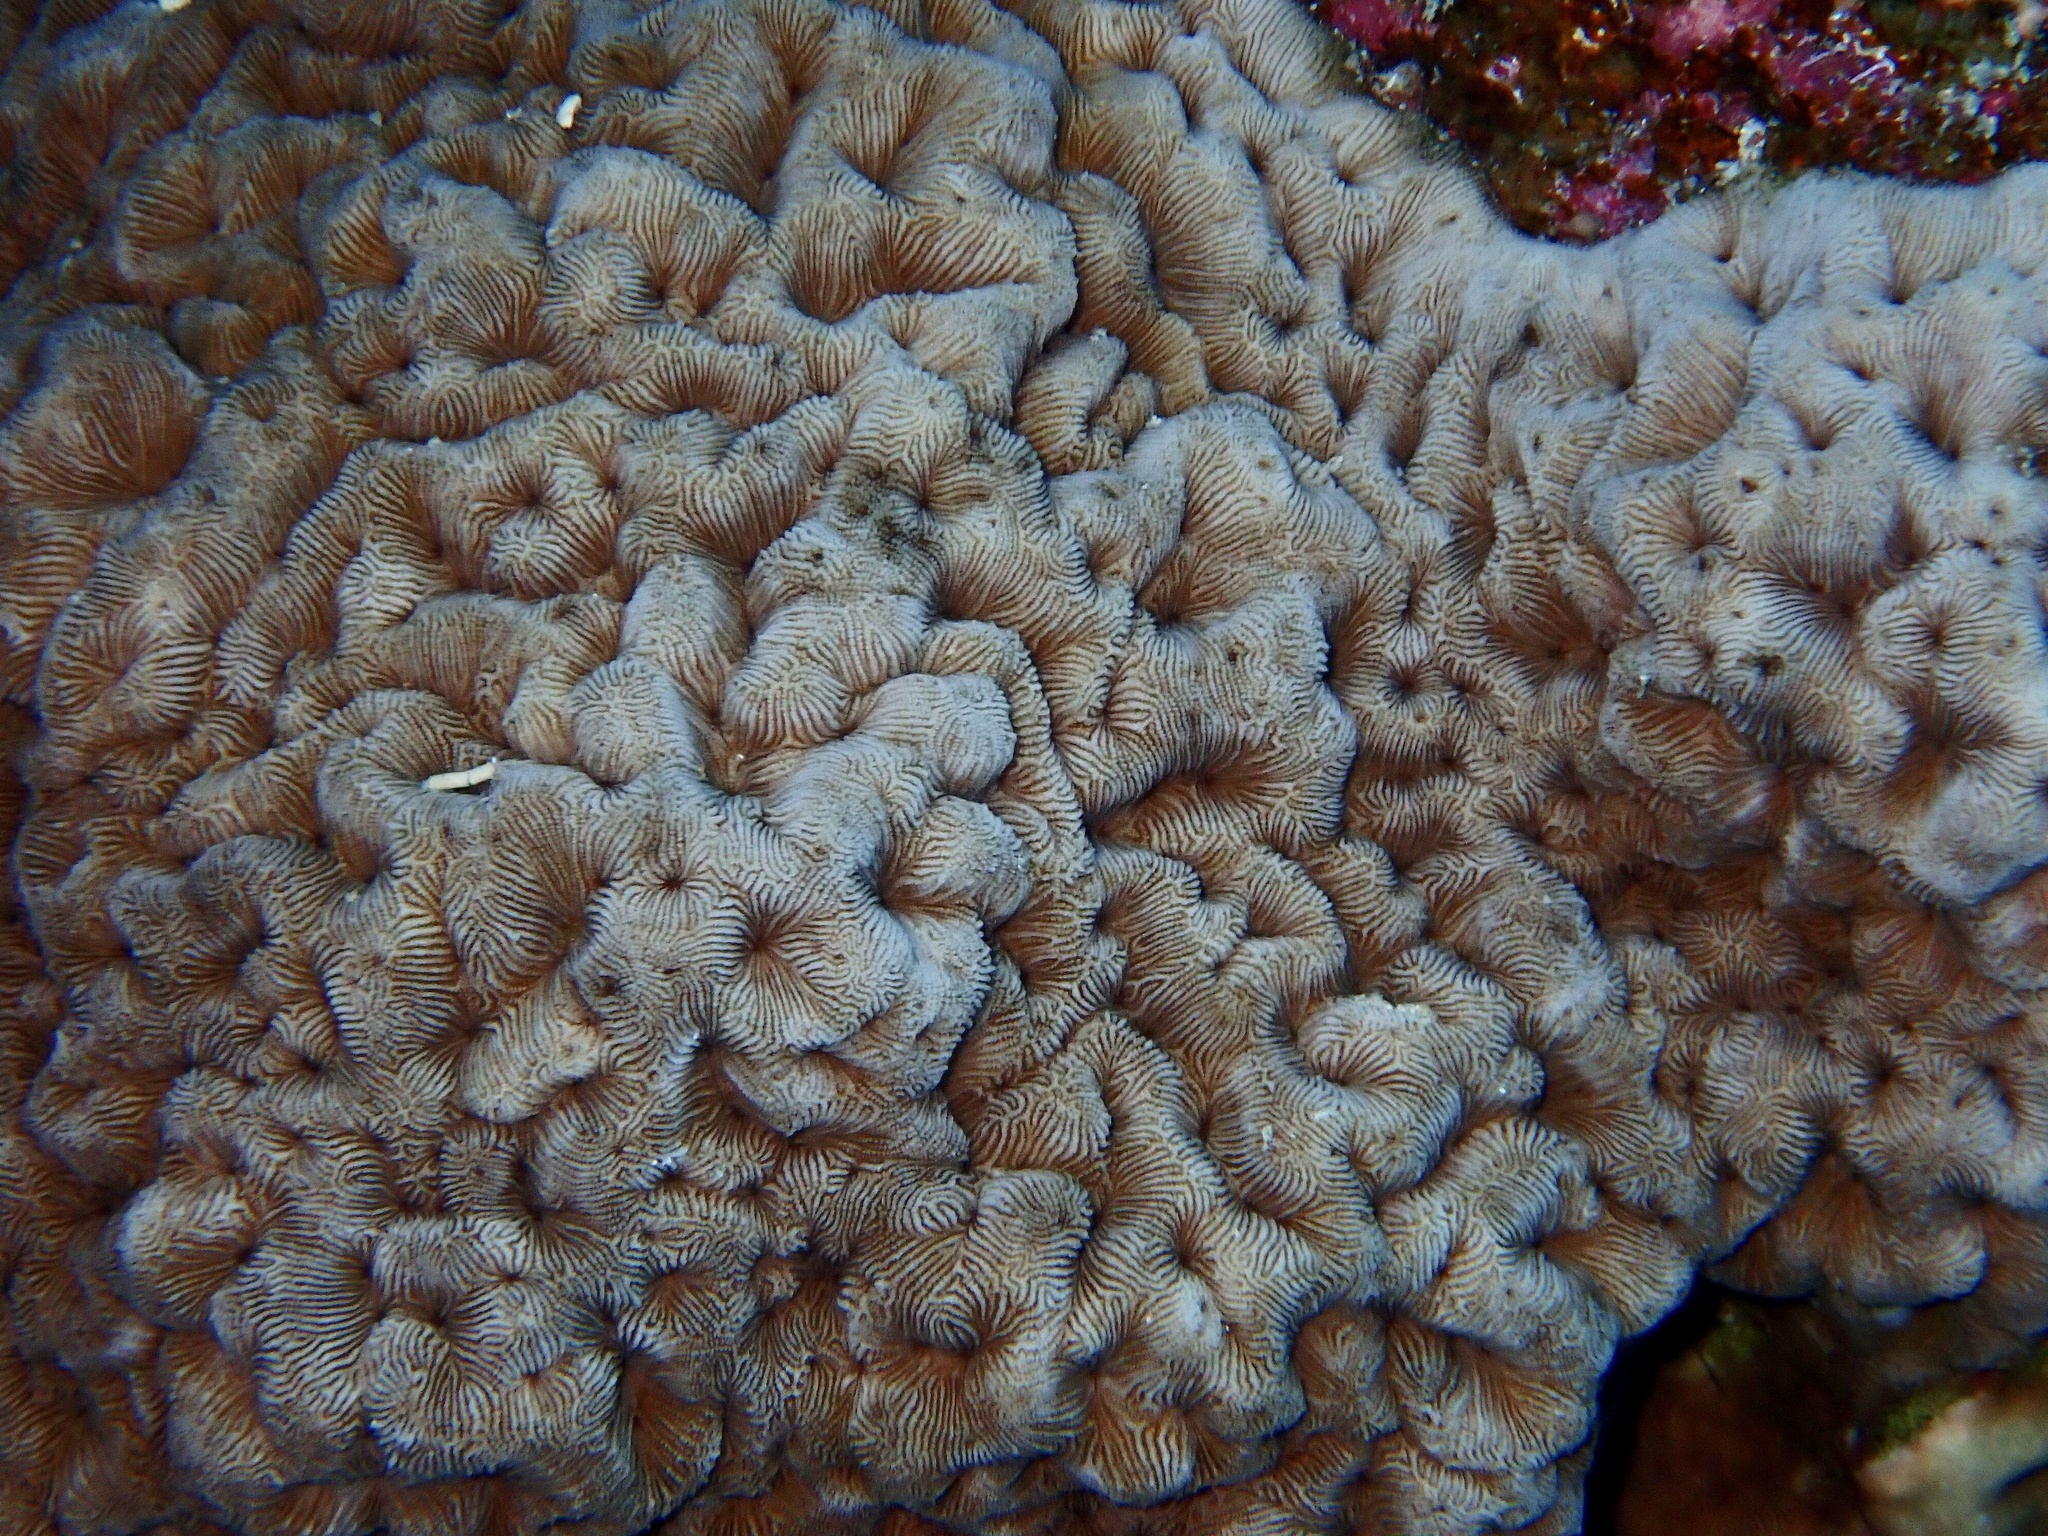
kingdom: Animalia
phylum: Cnidaria
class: Anthozoa
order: Scleractinia
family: Coscinaraeidae
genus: Coscinaraea
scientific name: Coscinaraea monile
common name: Wrinkle coral
